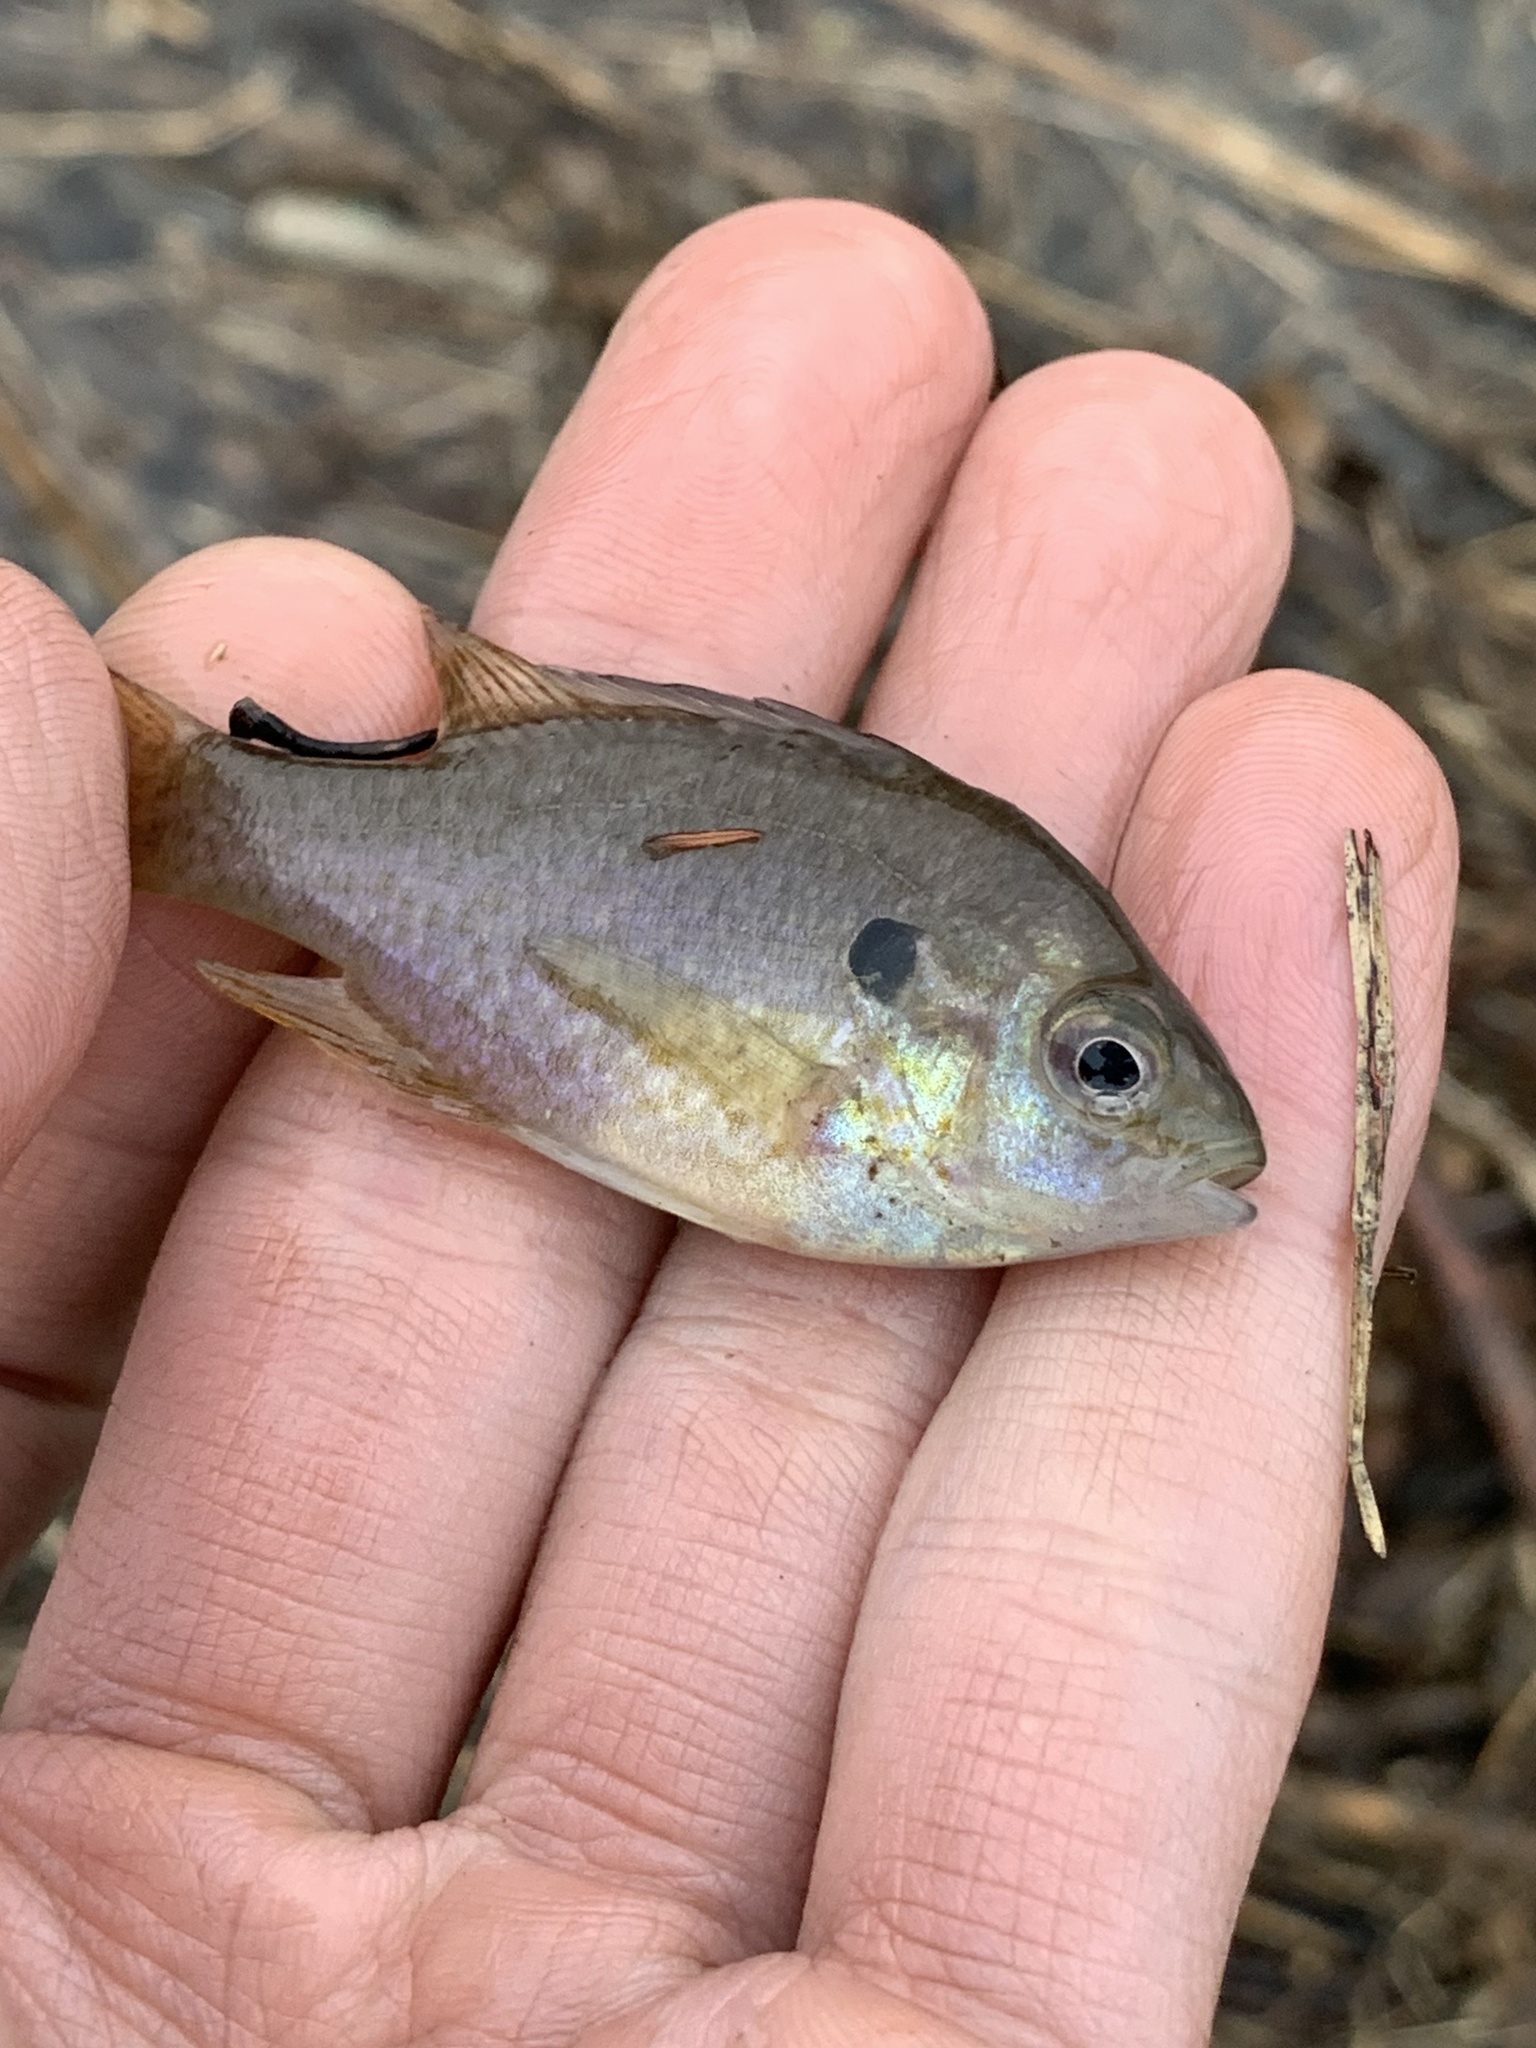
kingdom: Animalia
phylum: Chordata
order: Perciformes
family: Centrarchidae
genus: Lepomis
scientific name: Lepomis
